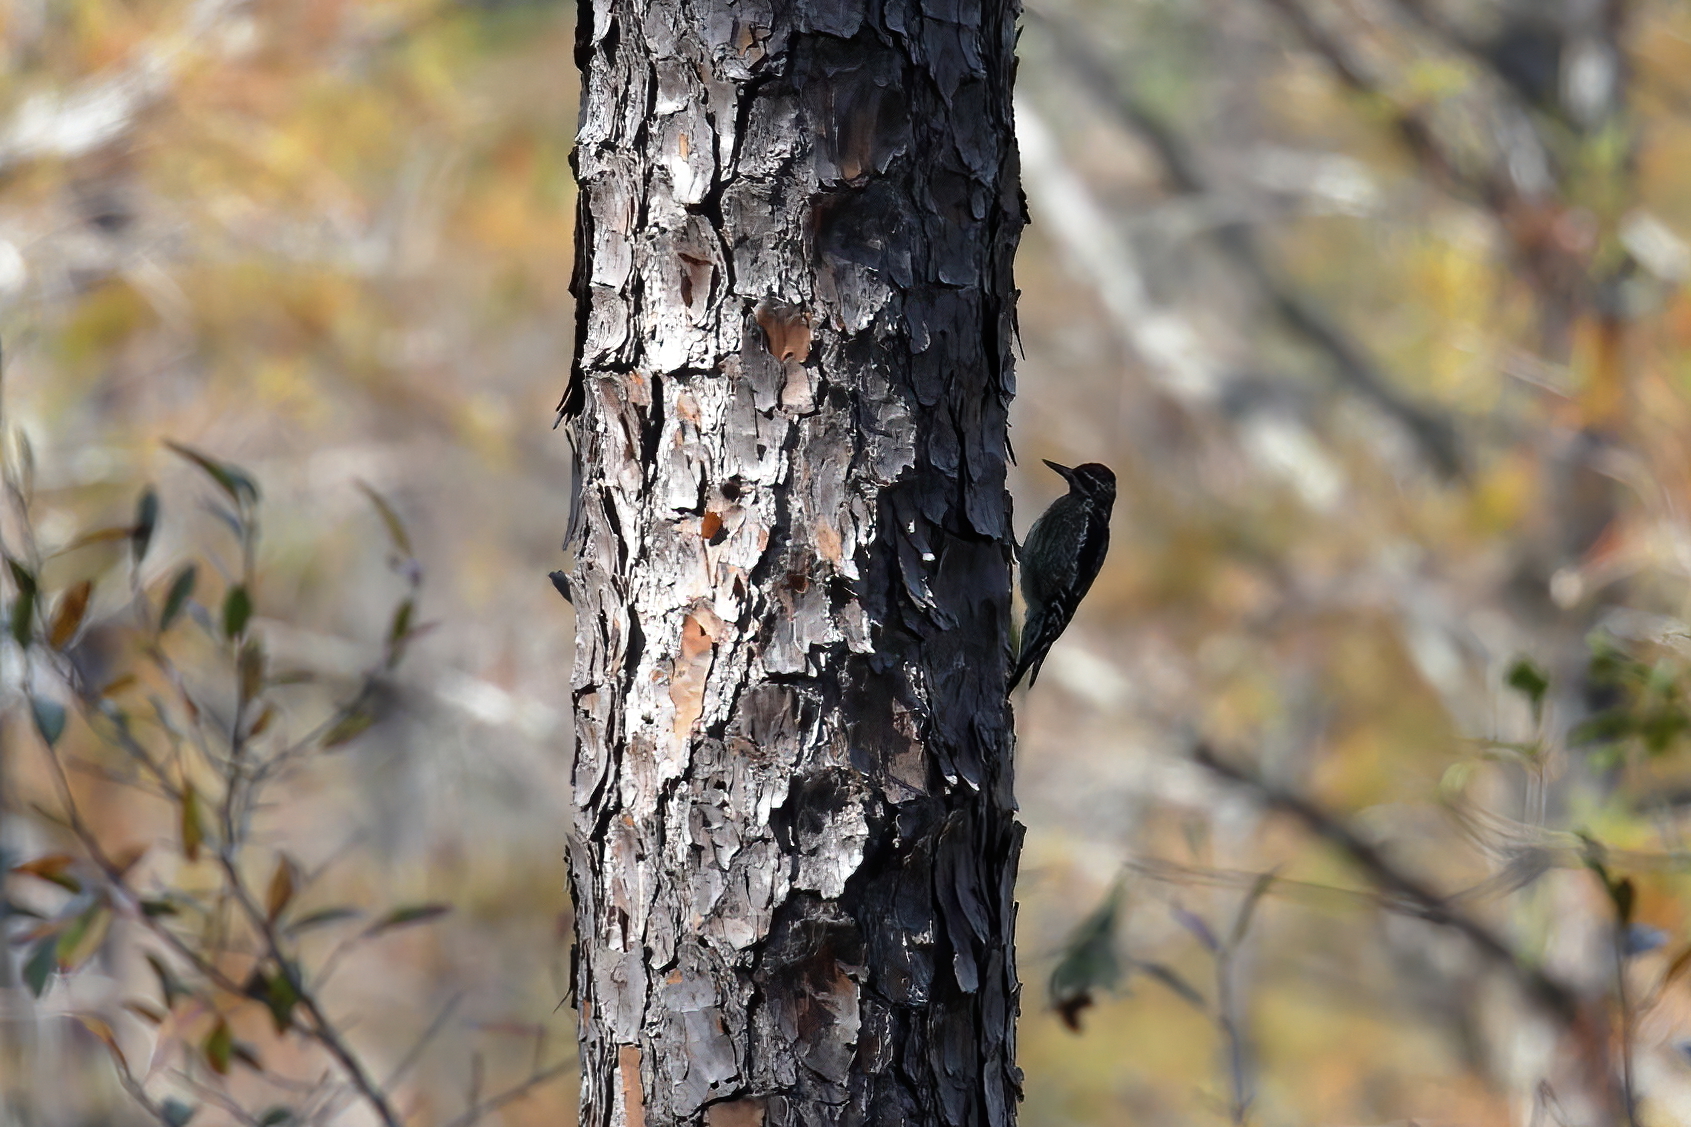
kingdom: Animalia
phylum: Chordata
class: Aves
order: Piciformes
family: Picidae
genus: Sphyrapicus
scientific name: Sphyrapicus varius
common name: Yellow-bellied sapsucker
